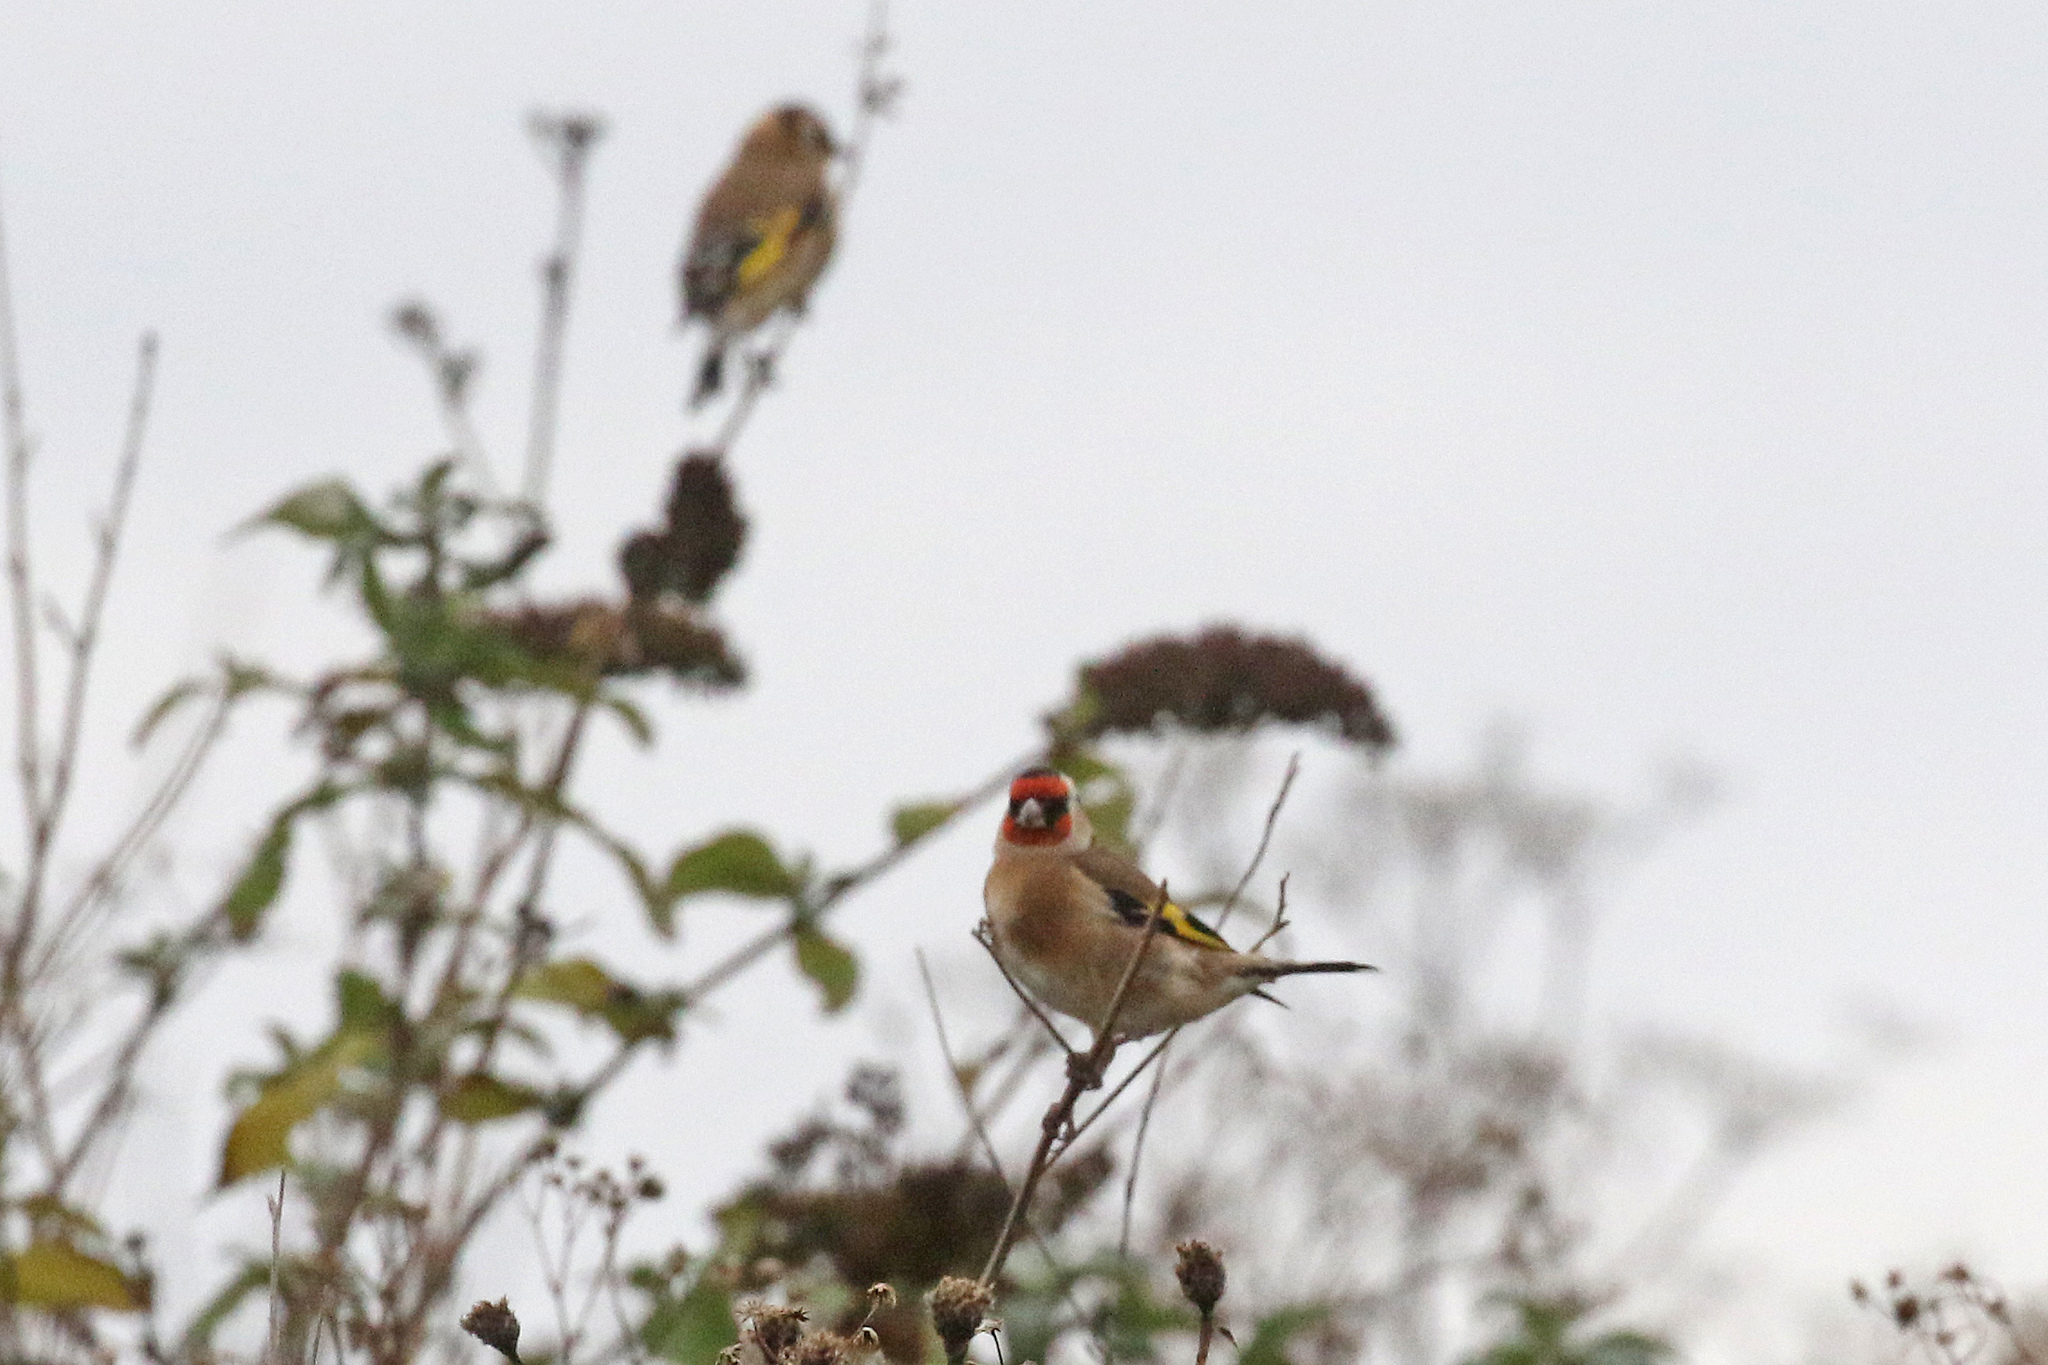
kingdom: Animalia
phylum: Chordata
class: Aves
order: Passeriformes
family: Fringillidae
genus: Carduelis
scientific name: Carduelis carduelis
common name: European goldfinch
